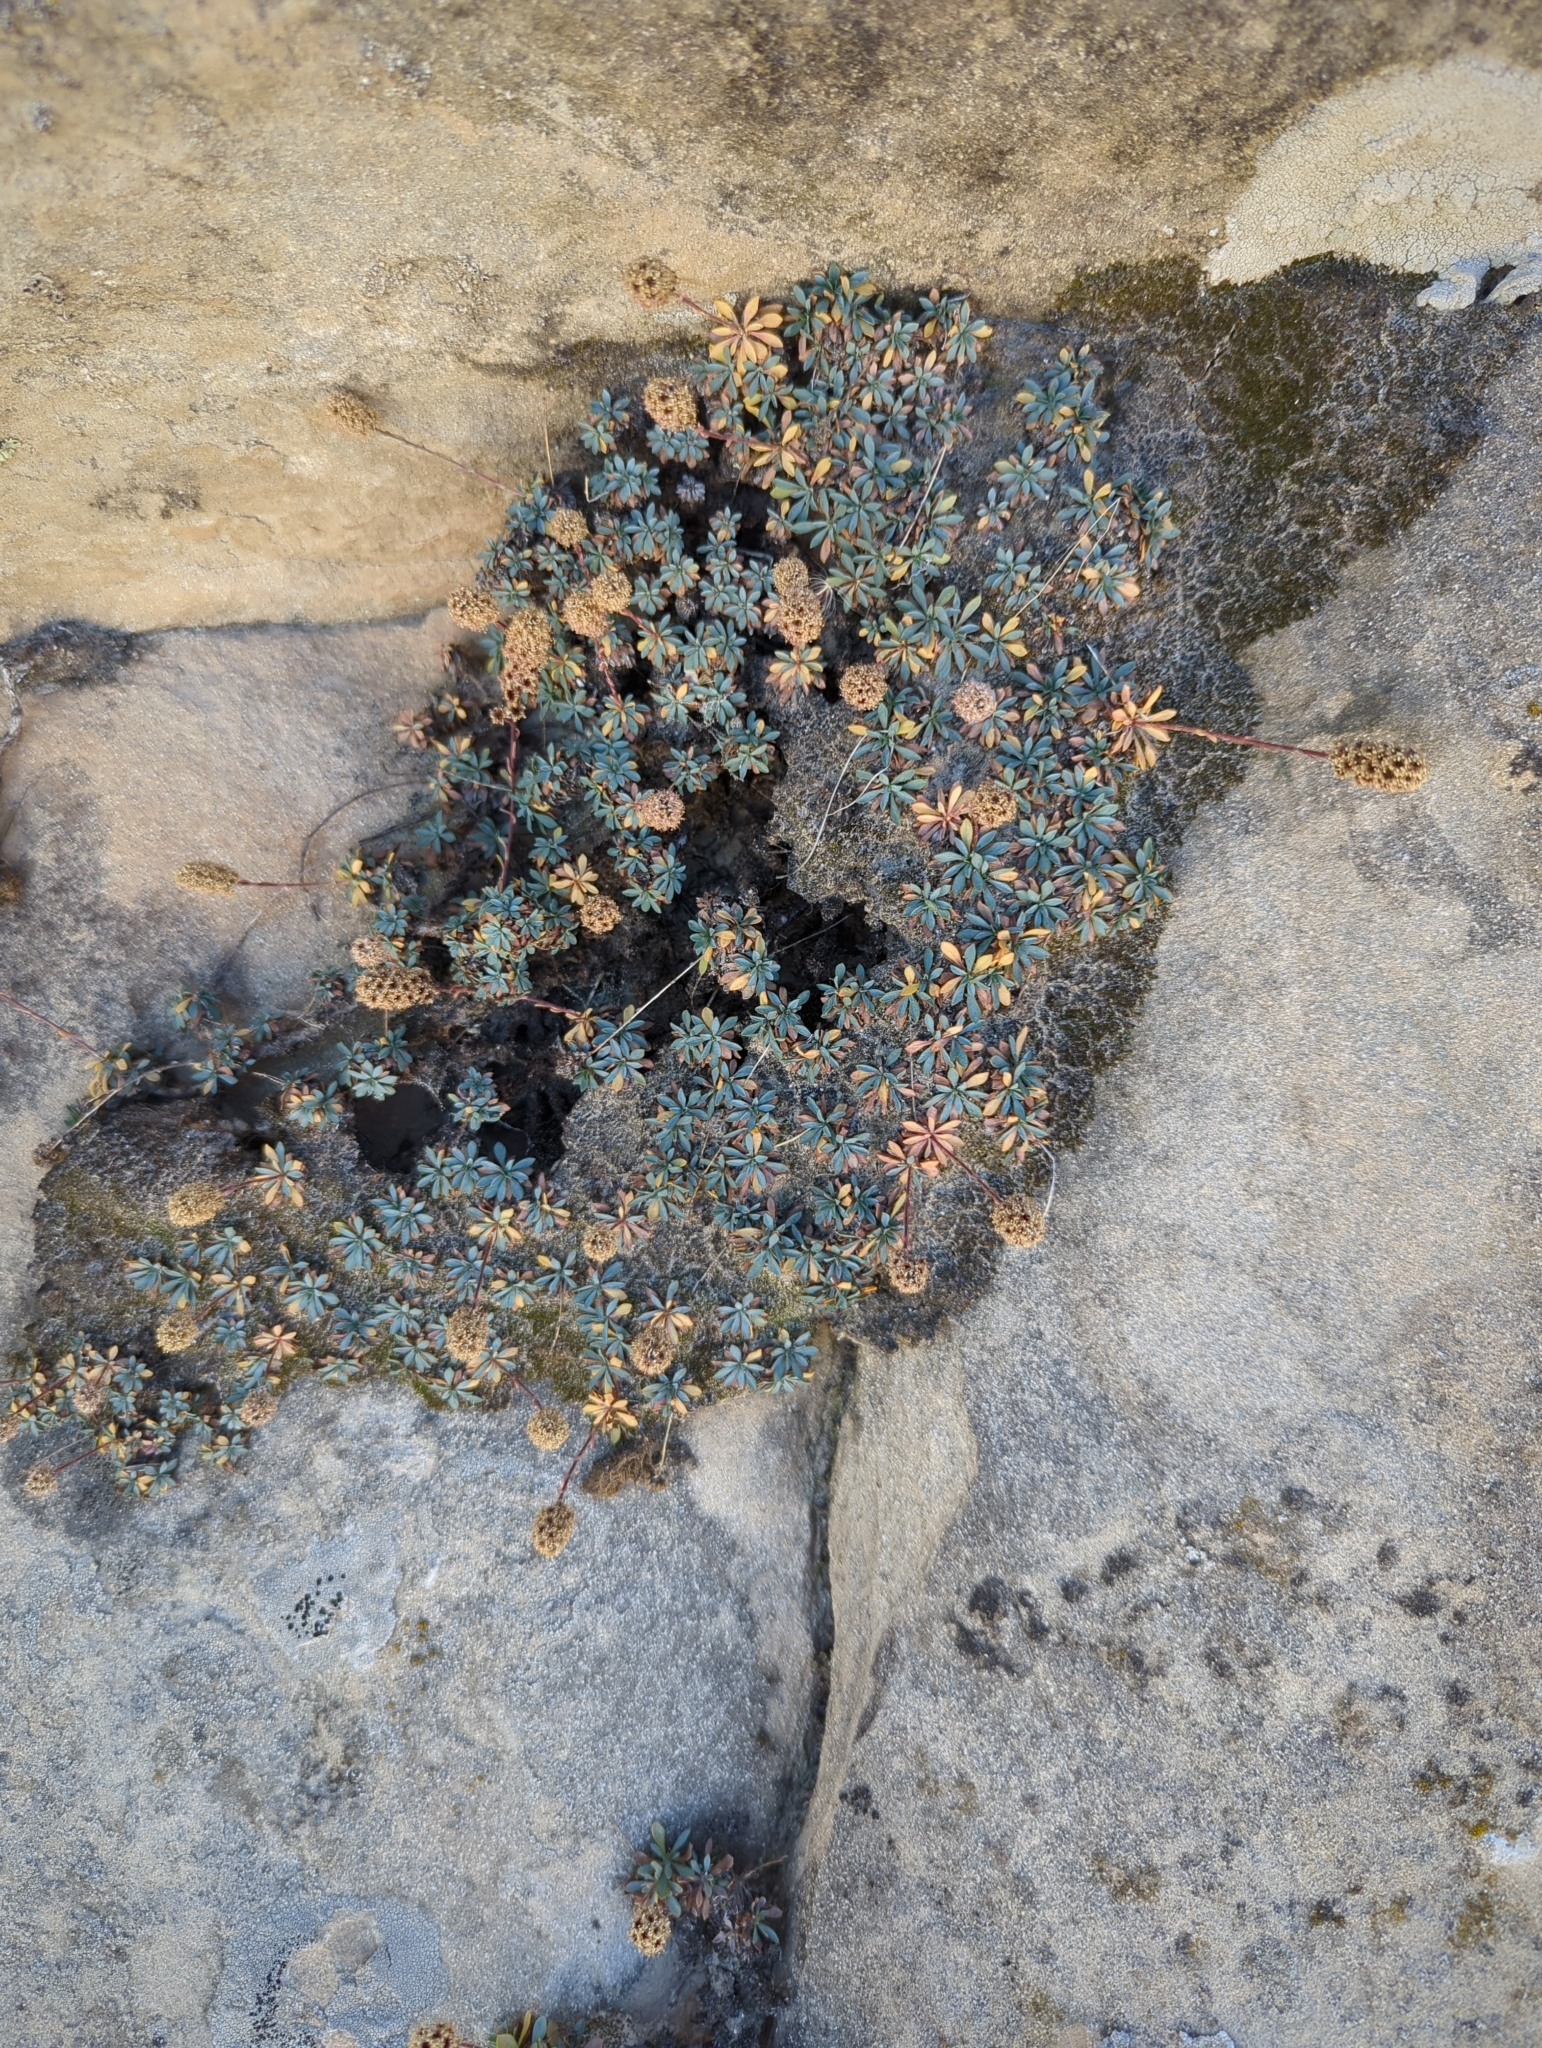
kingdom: Plantae
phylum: Tracheophyta
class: Magnoliopsida
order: Rosales
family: Rosaceae
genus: Petrophytum
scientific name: Petrophytum caespitosum
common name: Mat rockspirea
